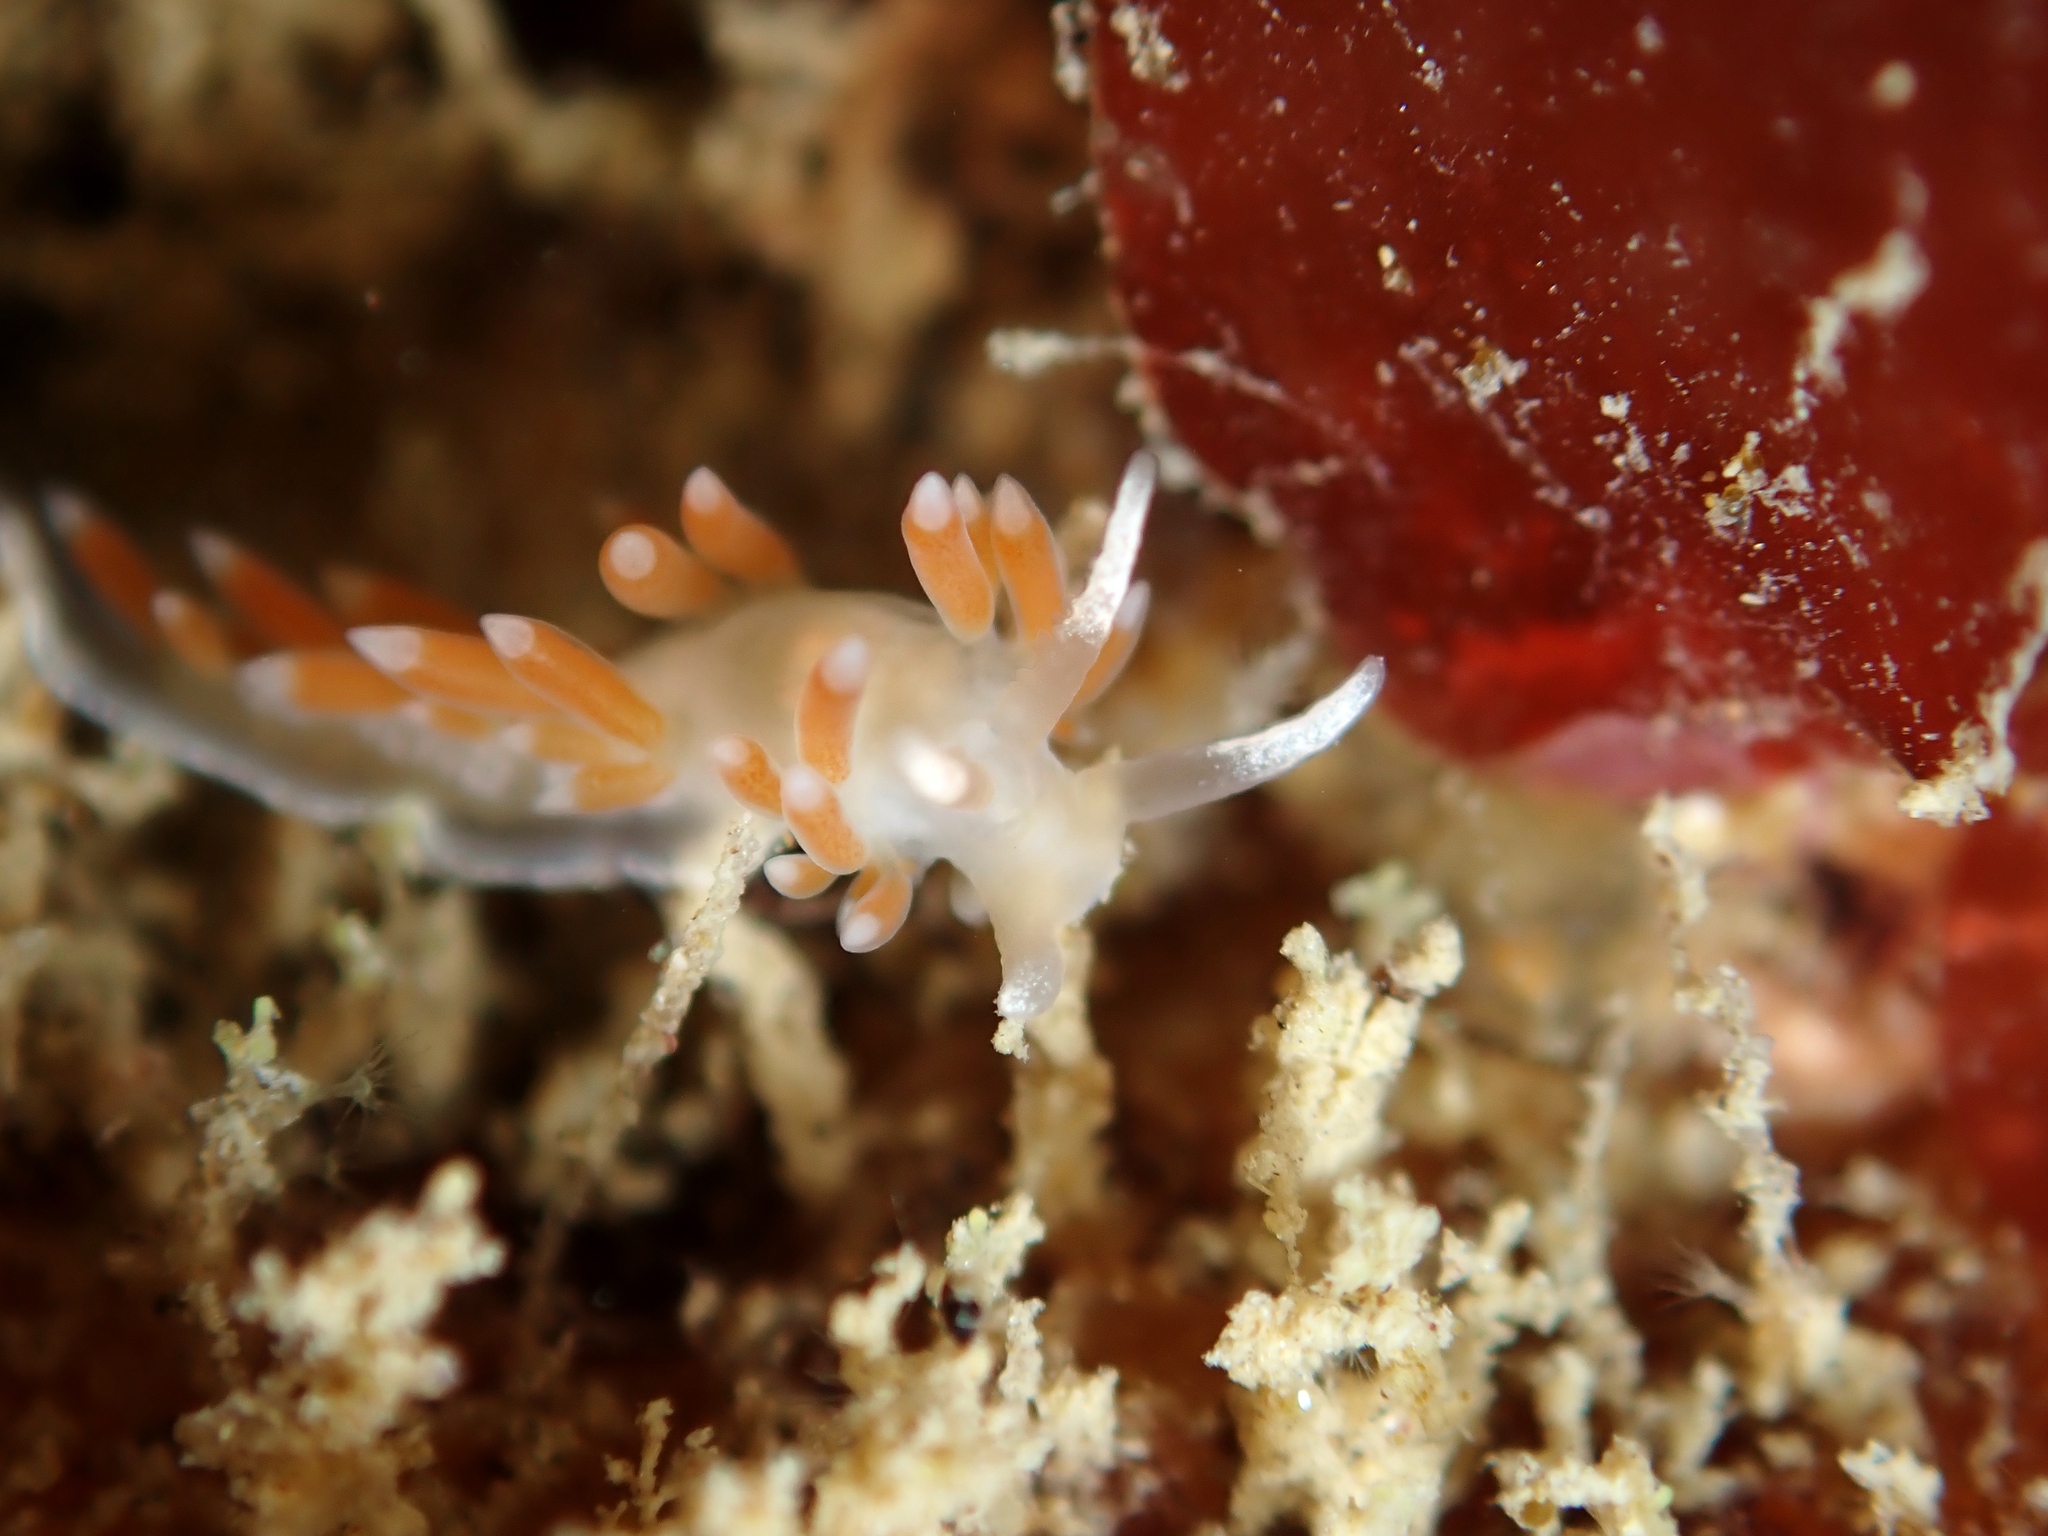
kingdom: Animalia
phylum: Mollusca
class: Gastropoda
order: Nudibranchia
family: Flabellinidae
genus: Coryphellina
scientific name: Coryphellina albomarginata
